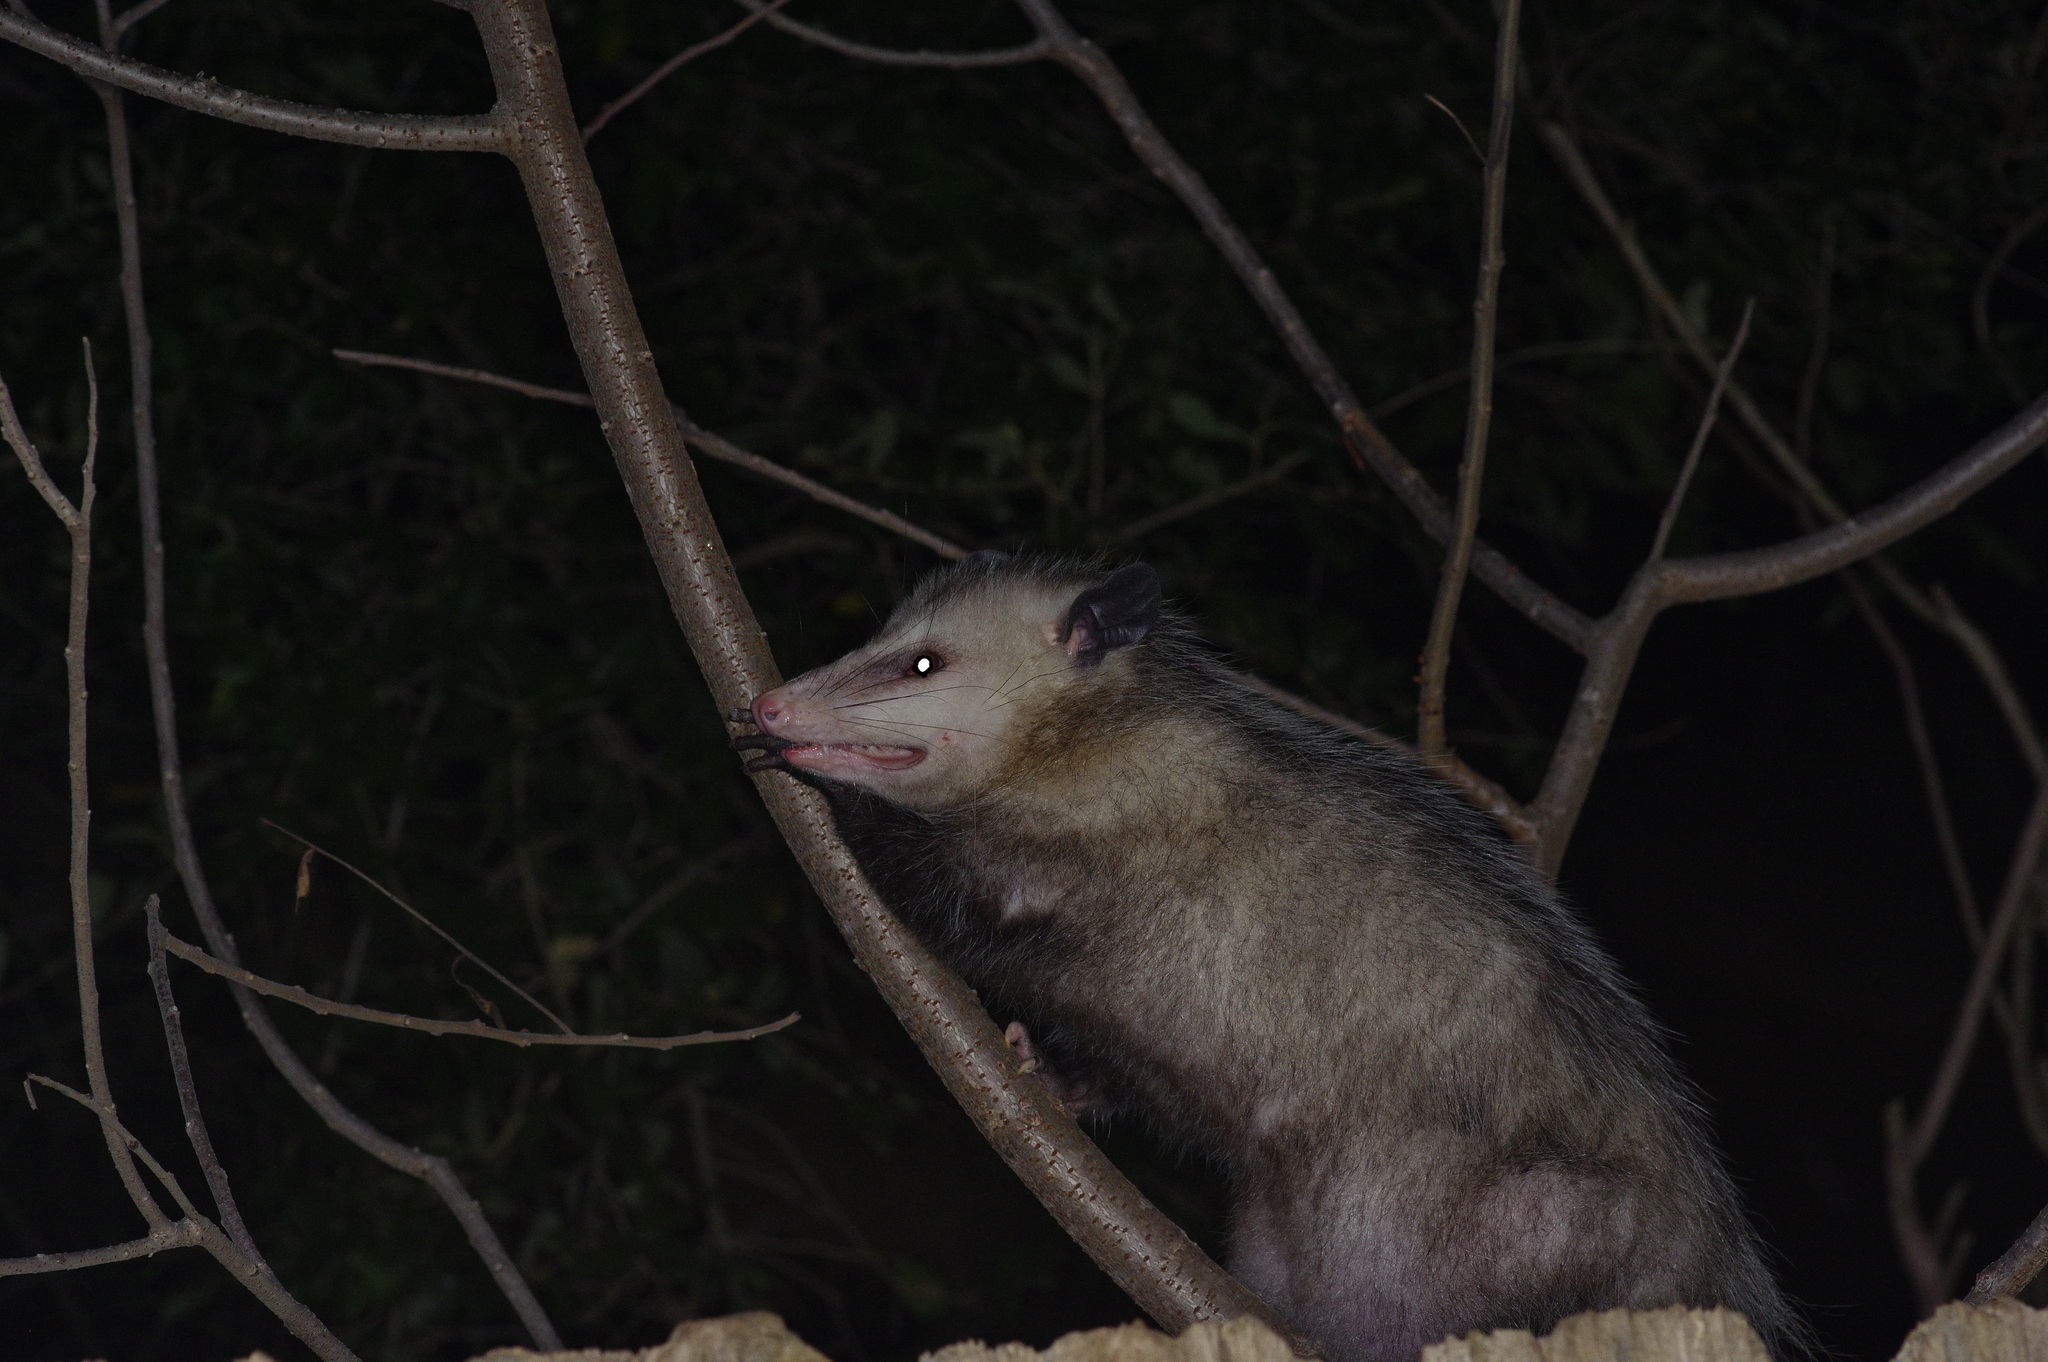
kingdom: Animalia
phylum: Chordata
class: Mammalia
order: Didelphimorphia
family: Didelphidae
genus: Didelphis
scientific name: Didelphis virginiana
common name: Virginia opossum
